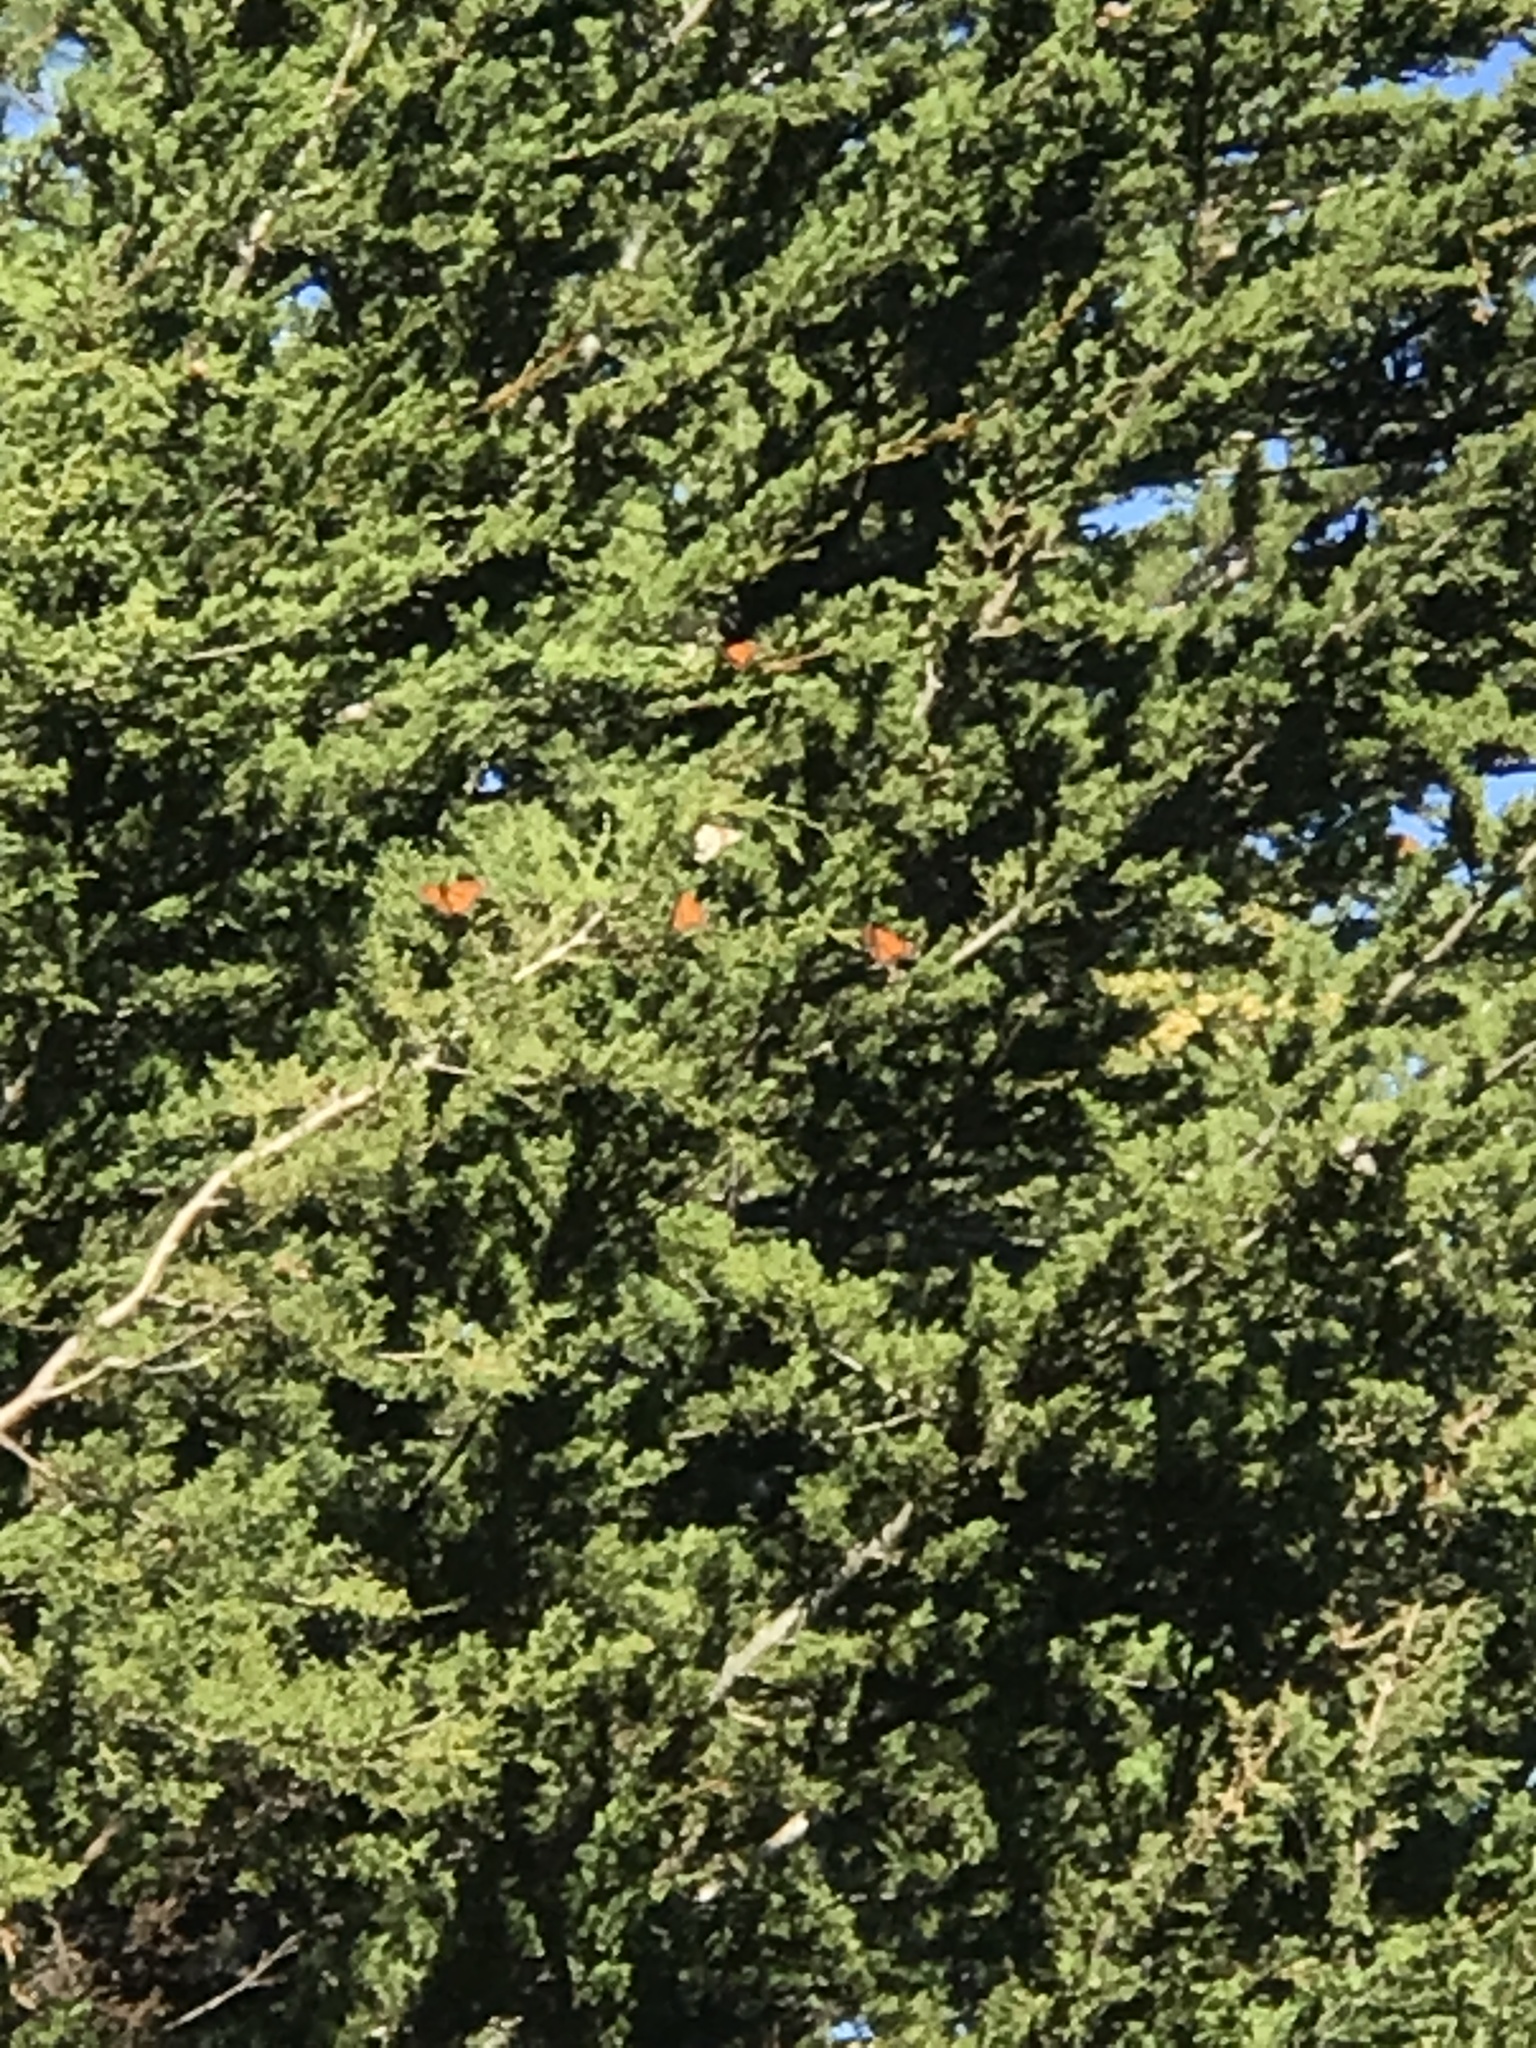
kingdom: Animalia
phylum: Arthropoda
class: Insecta
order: Lepidoptera
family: Nymphalidae
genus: Danaus
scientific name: Danaus plexippus
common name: Monarch
